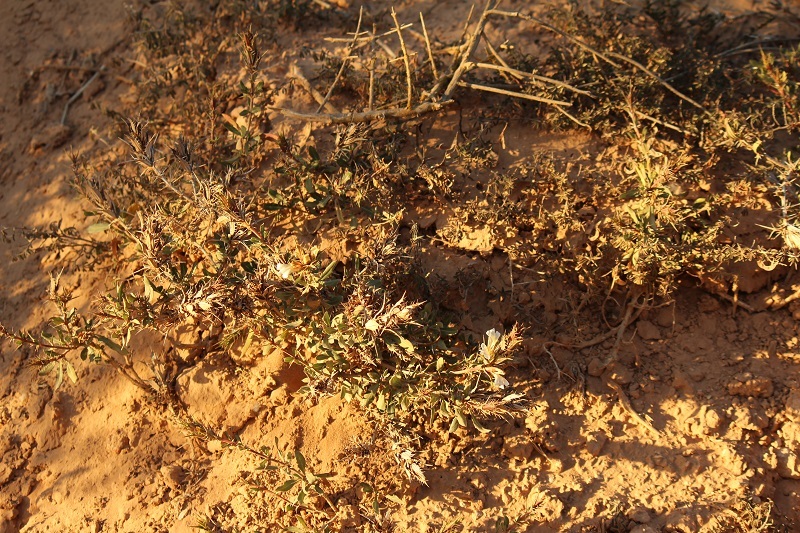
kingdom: Plantae
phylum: Tracheophyta
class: Magnoliopsida
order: Lamiales
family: Acanthaceae
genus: Blepharis
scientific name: Blepharis capensis
